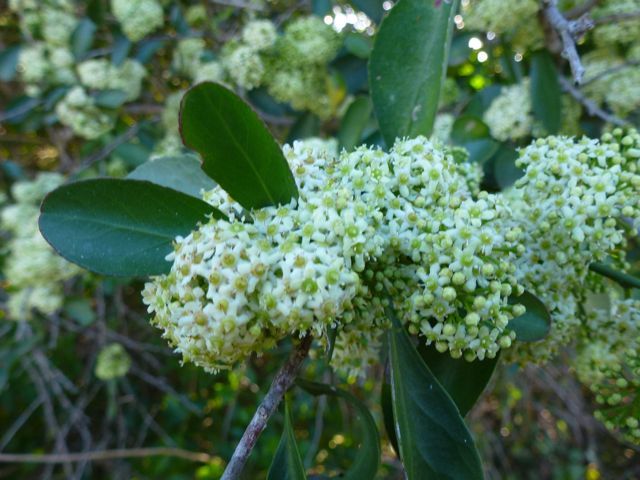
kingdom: Plantae
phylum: Tracheophyta
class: Magnoliopsida
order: Celastrales
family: Celastraceae
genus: Gymnosporia
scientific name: Gymnosporia buxifolia
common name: Common spike-thorn
